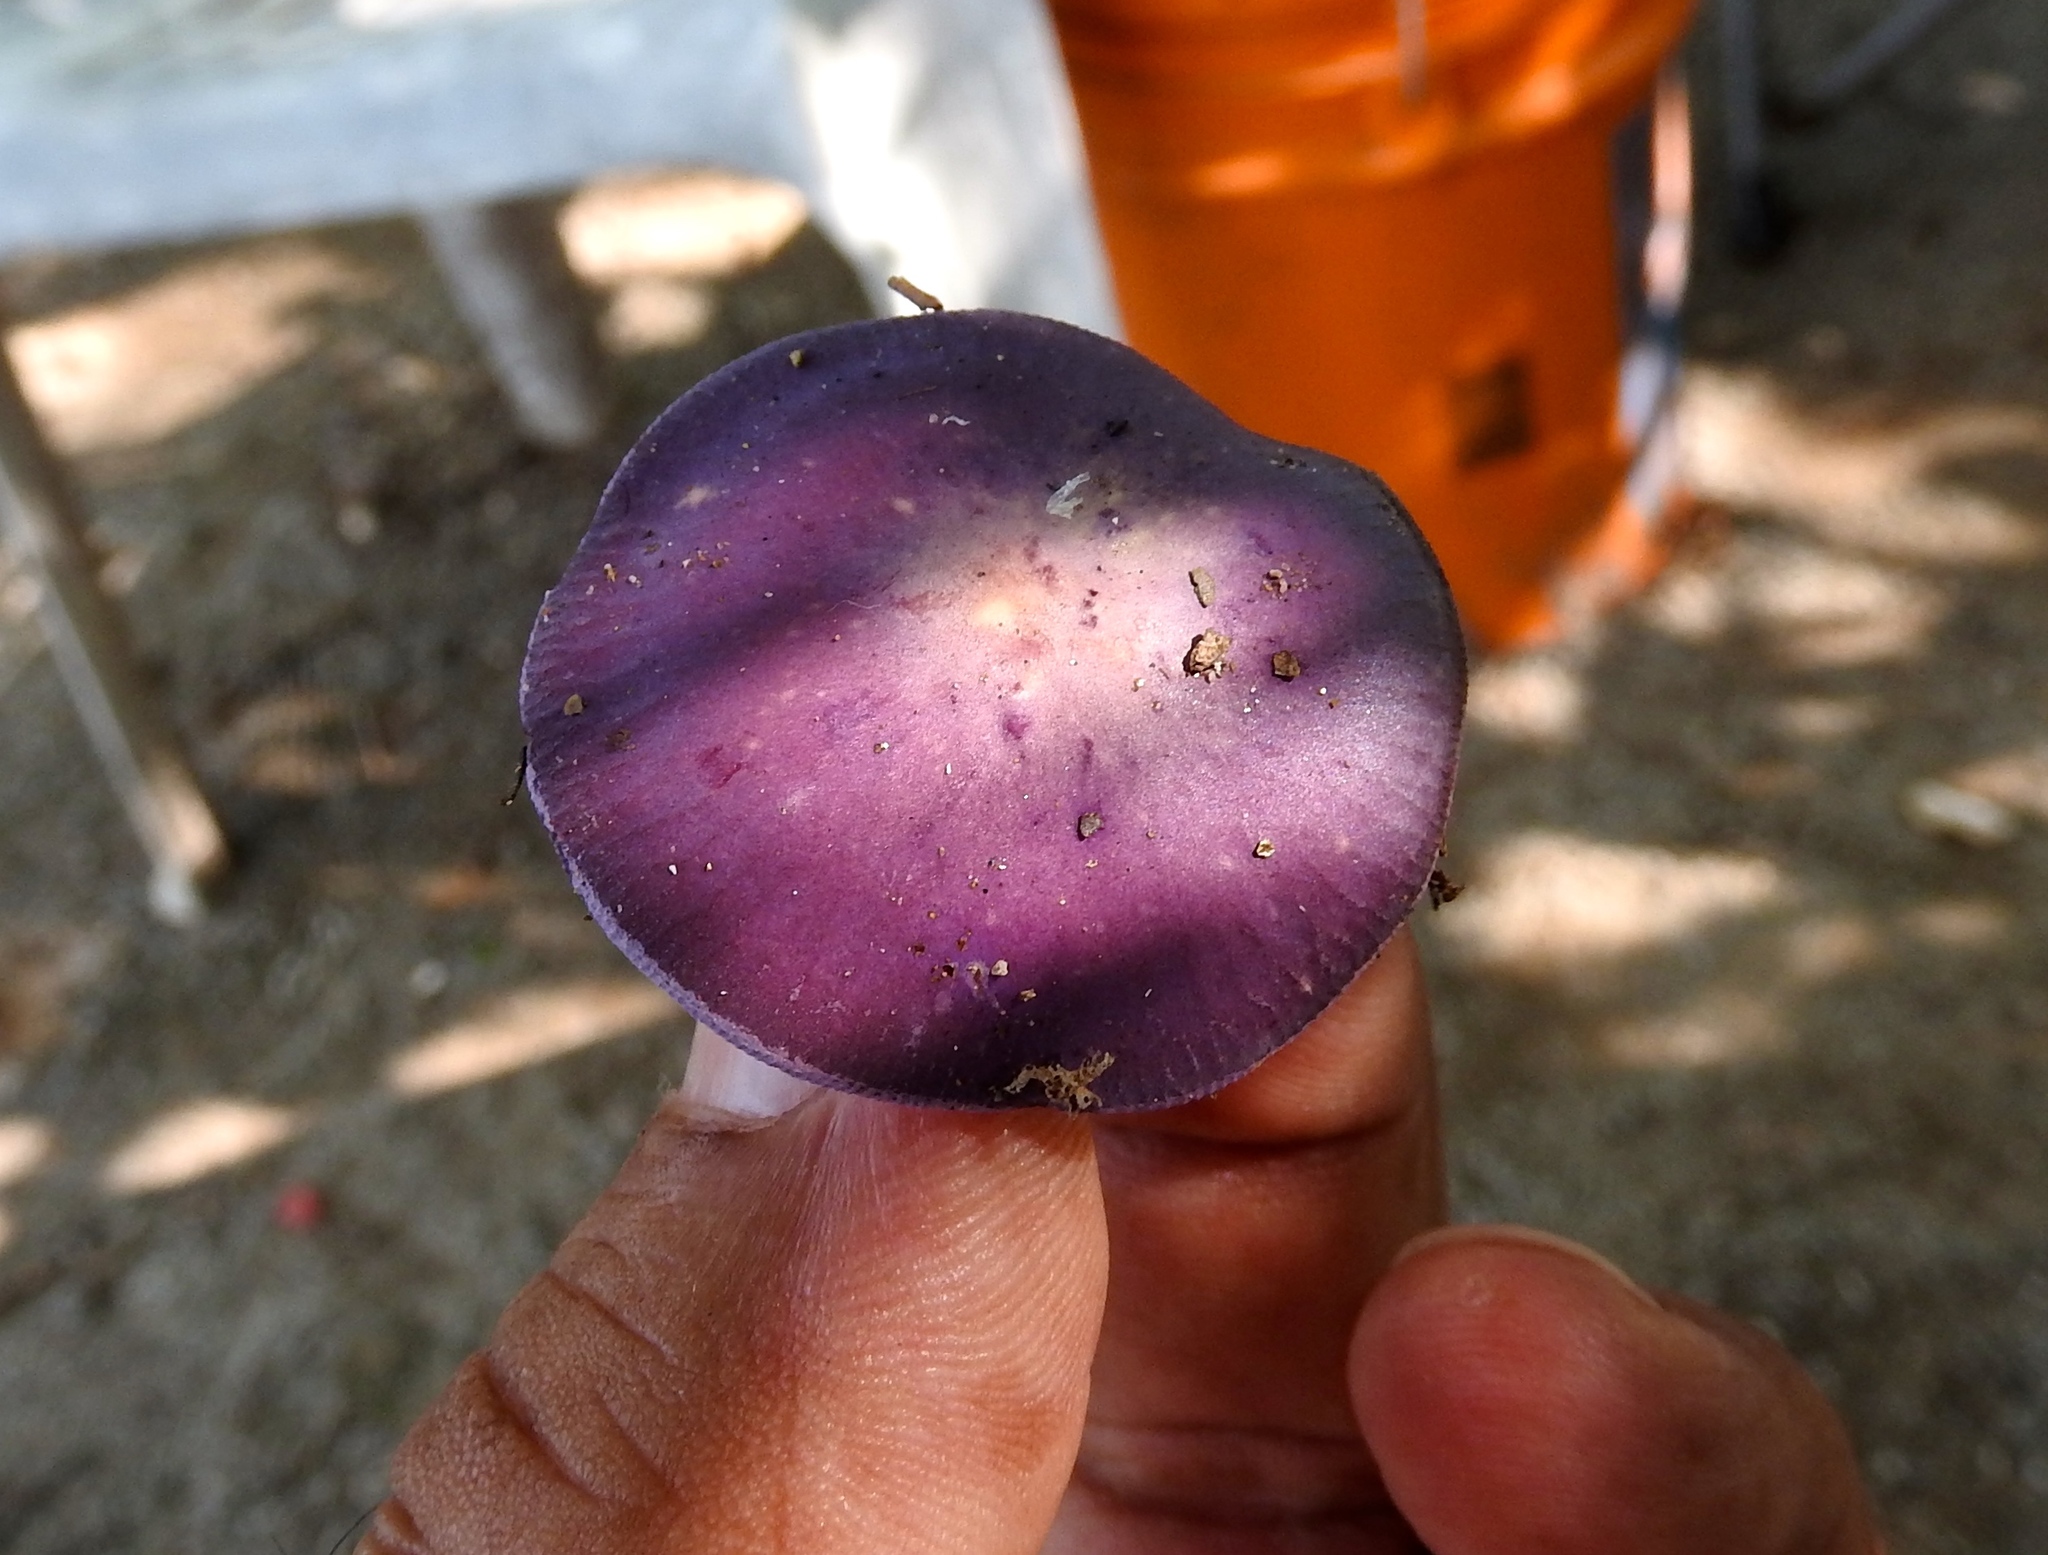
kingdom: Fungi
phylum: Basidiomycota
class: Agaricomycetes
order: Agaricales
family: Cortinariaceae
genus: Cortinarius
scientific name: Cortinarius iodes
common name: Viscid violet cort
